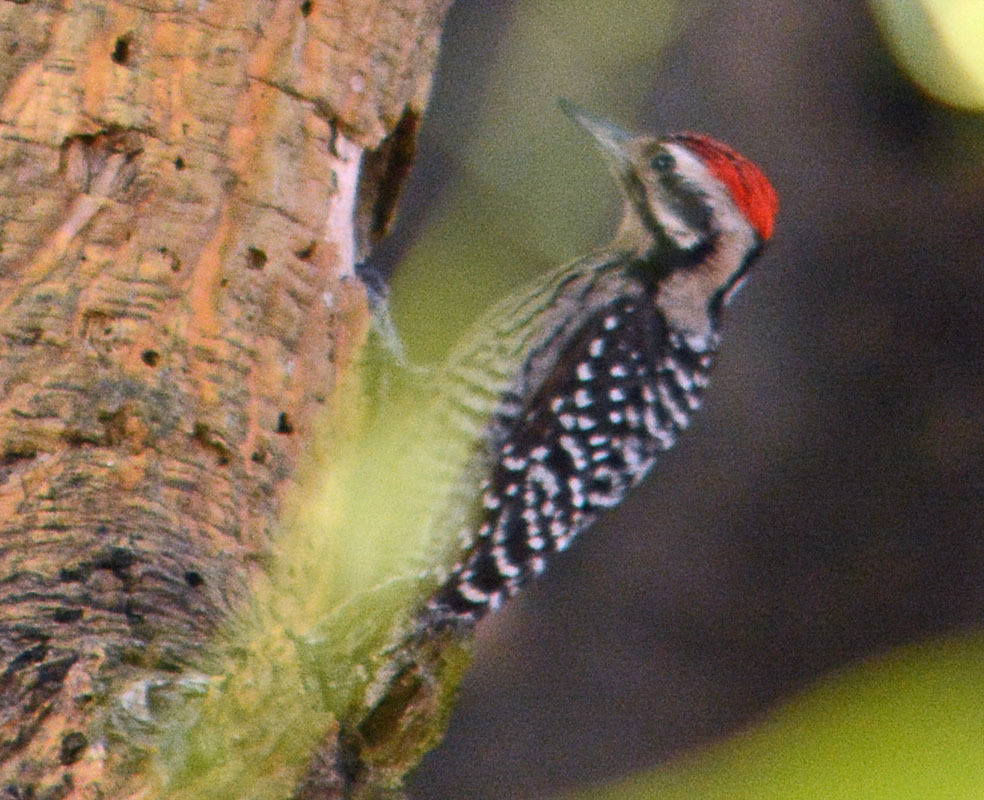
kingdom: Animalia
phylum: Chordata
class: Aves
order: Piciformes
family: Picidae
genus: Dryobates
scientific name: Dryobates scalaris
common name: Ladder-backed woodpecker
